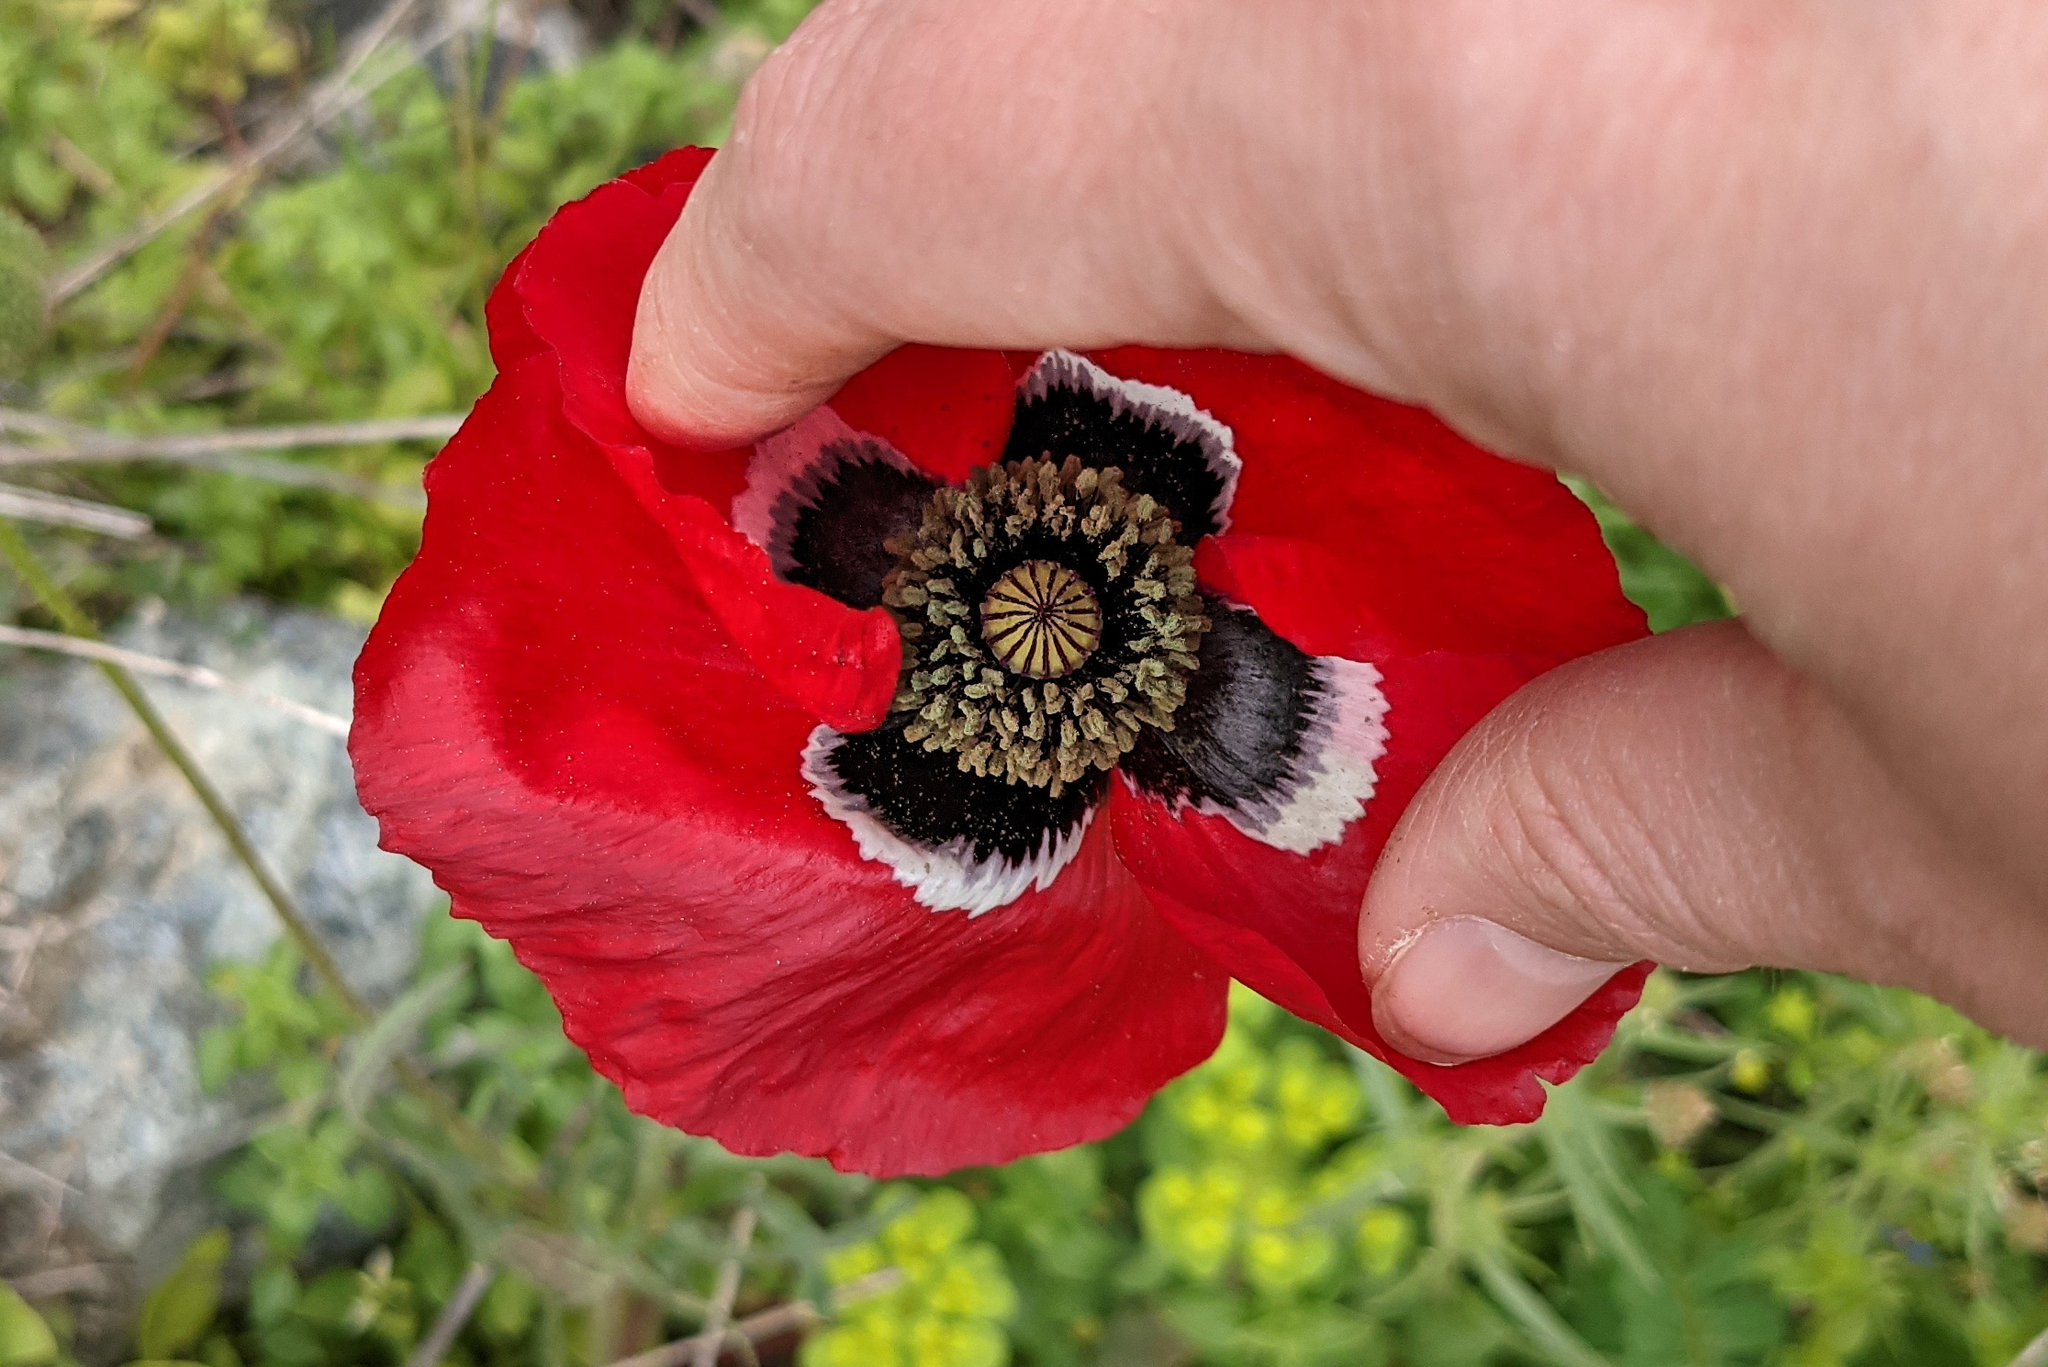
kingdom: Plantae
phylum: Tracheophyta
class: Magnoliopsida
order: Ranunculales
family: Papaveraceae
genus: Papaver
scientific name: Papaver rhoeas
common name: Corn poppy
